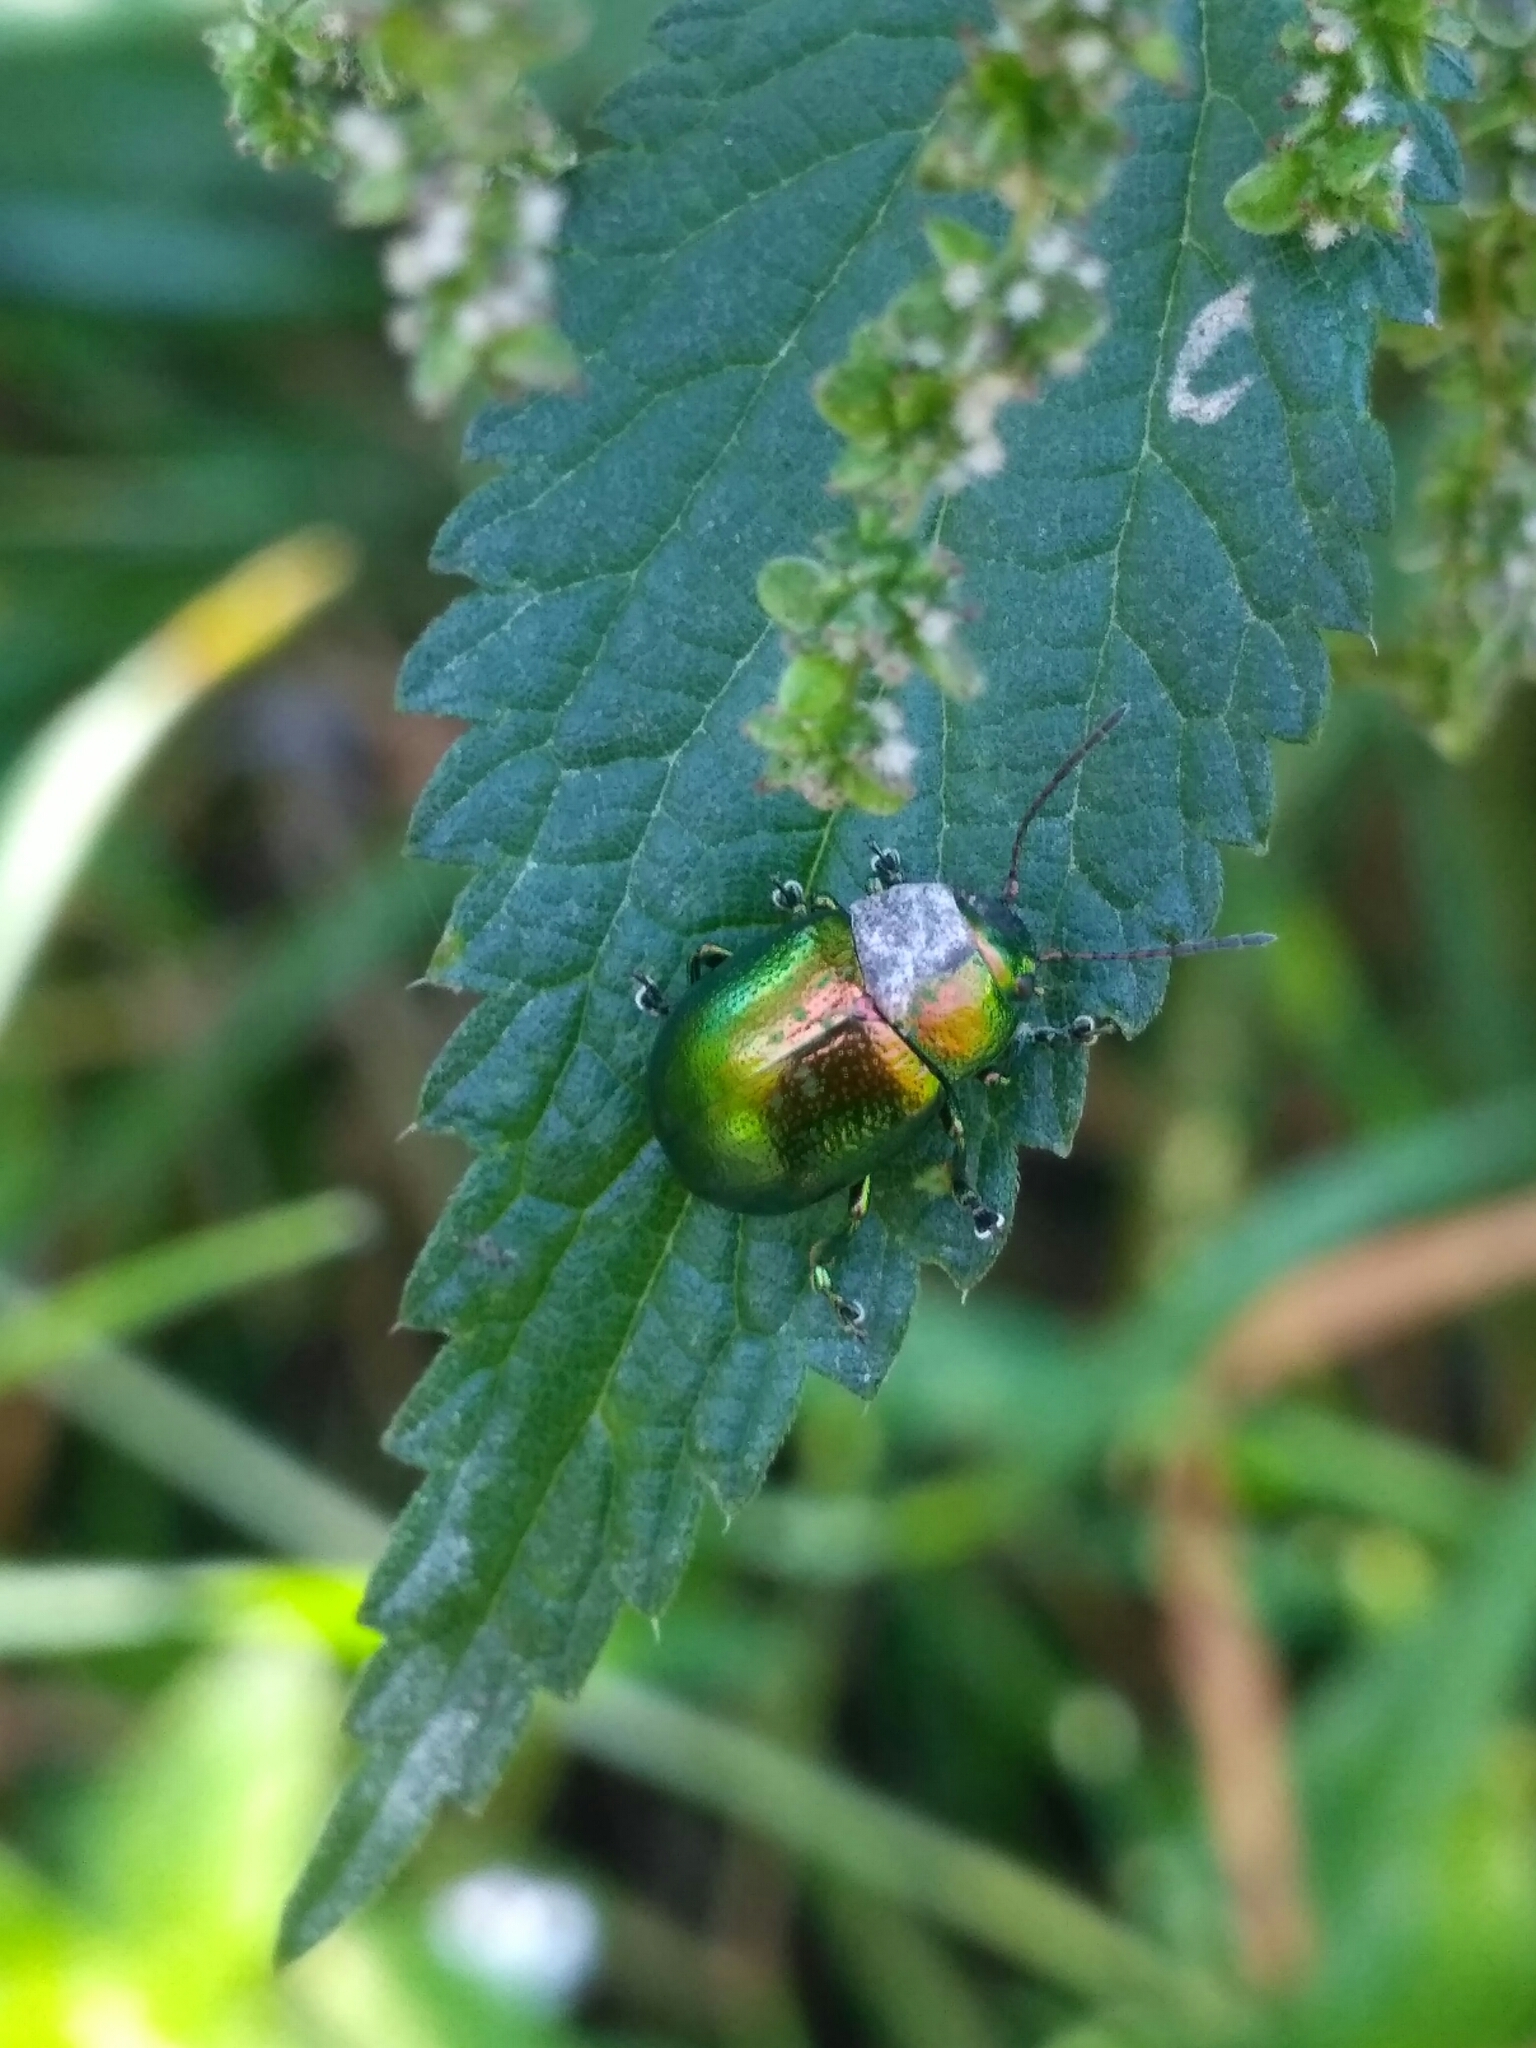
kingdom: Animalia
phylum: Arthropoda
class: Insecta
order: Coleoptera
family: Chrysomelidae
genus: Chrysolina
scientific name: Chrysolina herbacea
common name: Mint leaf beatle
